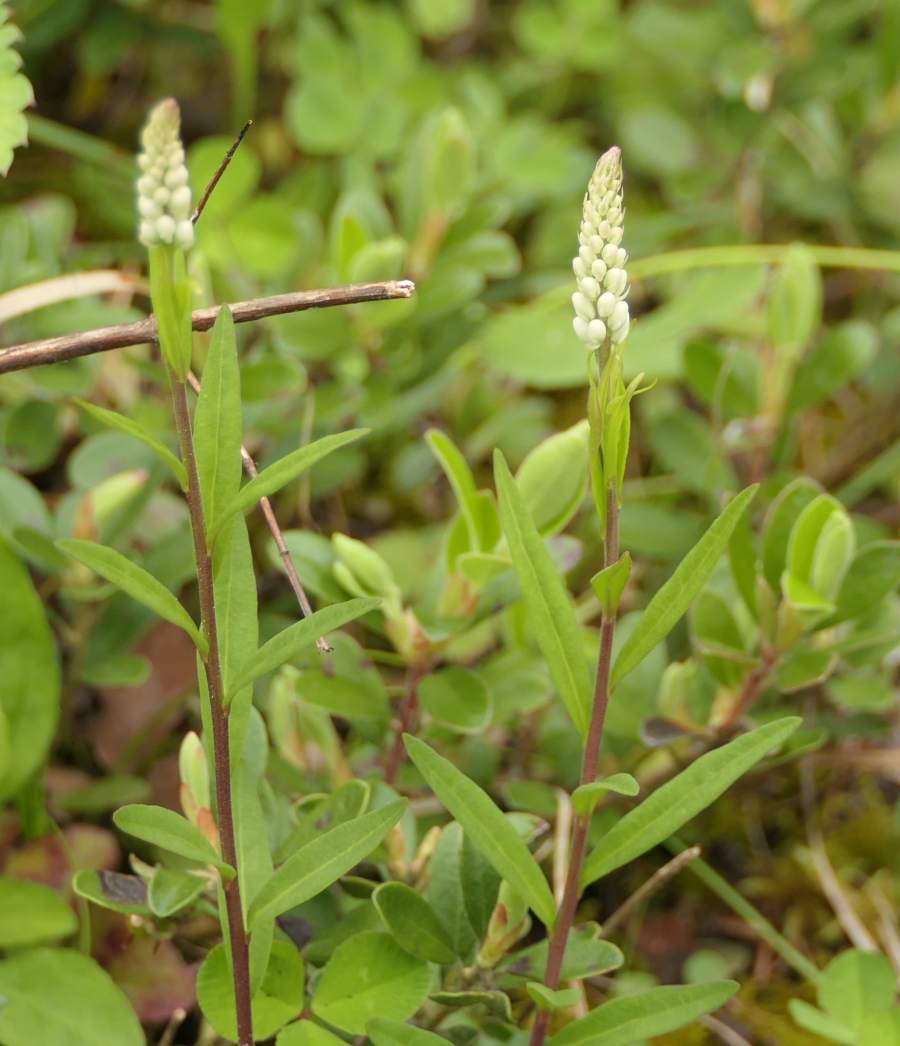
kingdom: Plantae
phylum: Tracheophyta
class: Magnoliopsida
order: Fabales
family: Polygalaceae
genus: Polygala
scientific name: Polygala senega
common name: Seneca snakeroot
